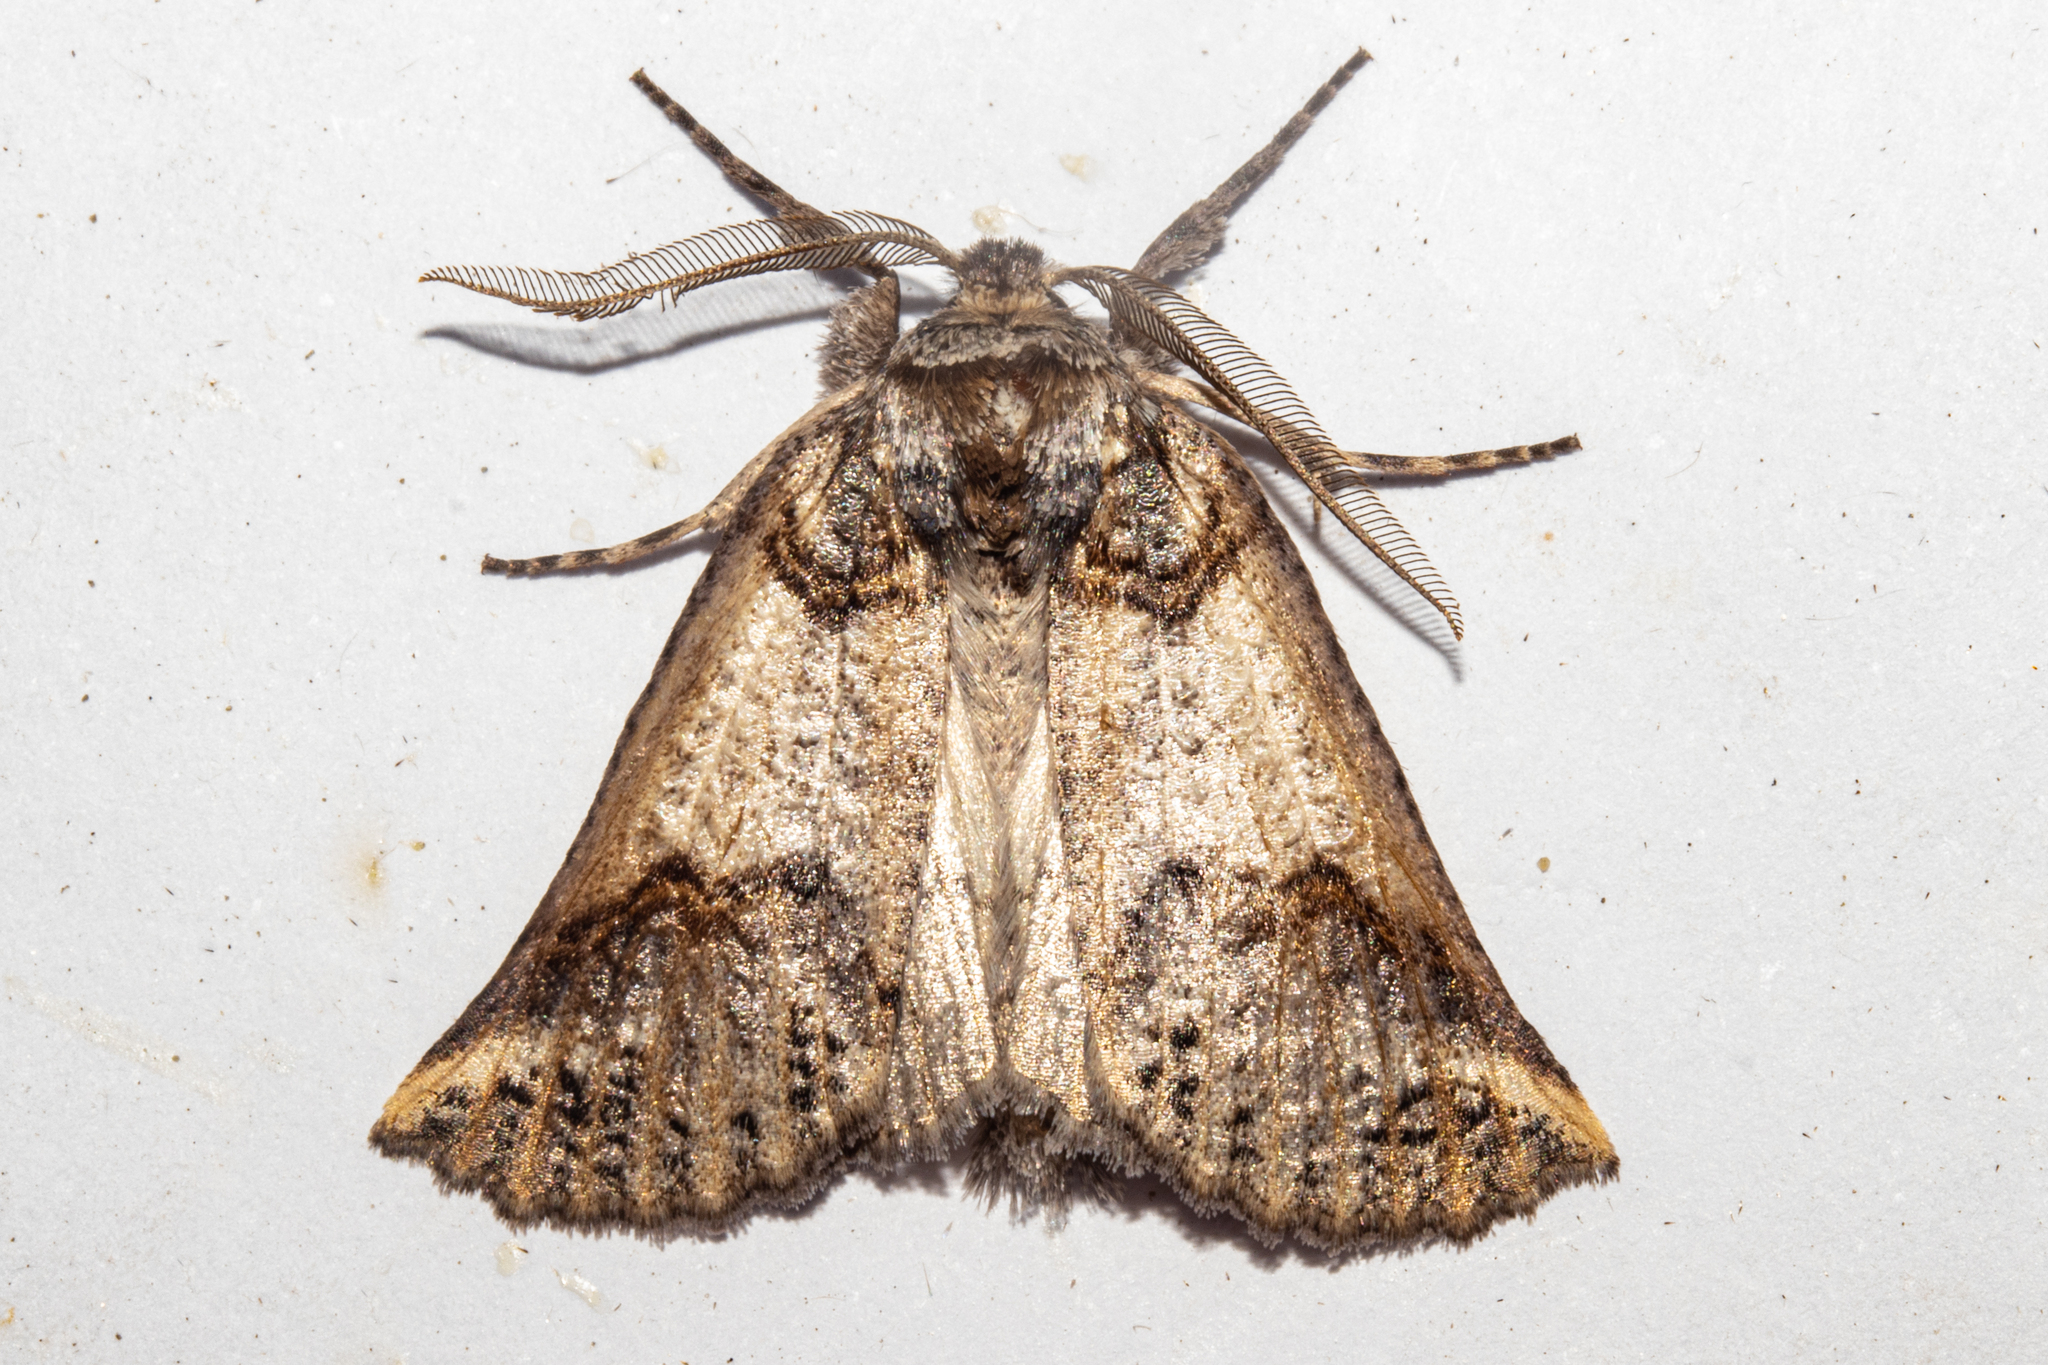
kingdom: Animalia
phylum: Arthropoda
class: Insecta
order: Lepidoptera
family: Geometridae
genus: Declana
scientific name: Declana
